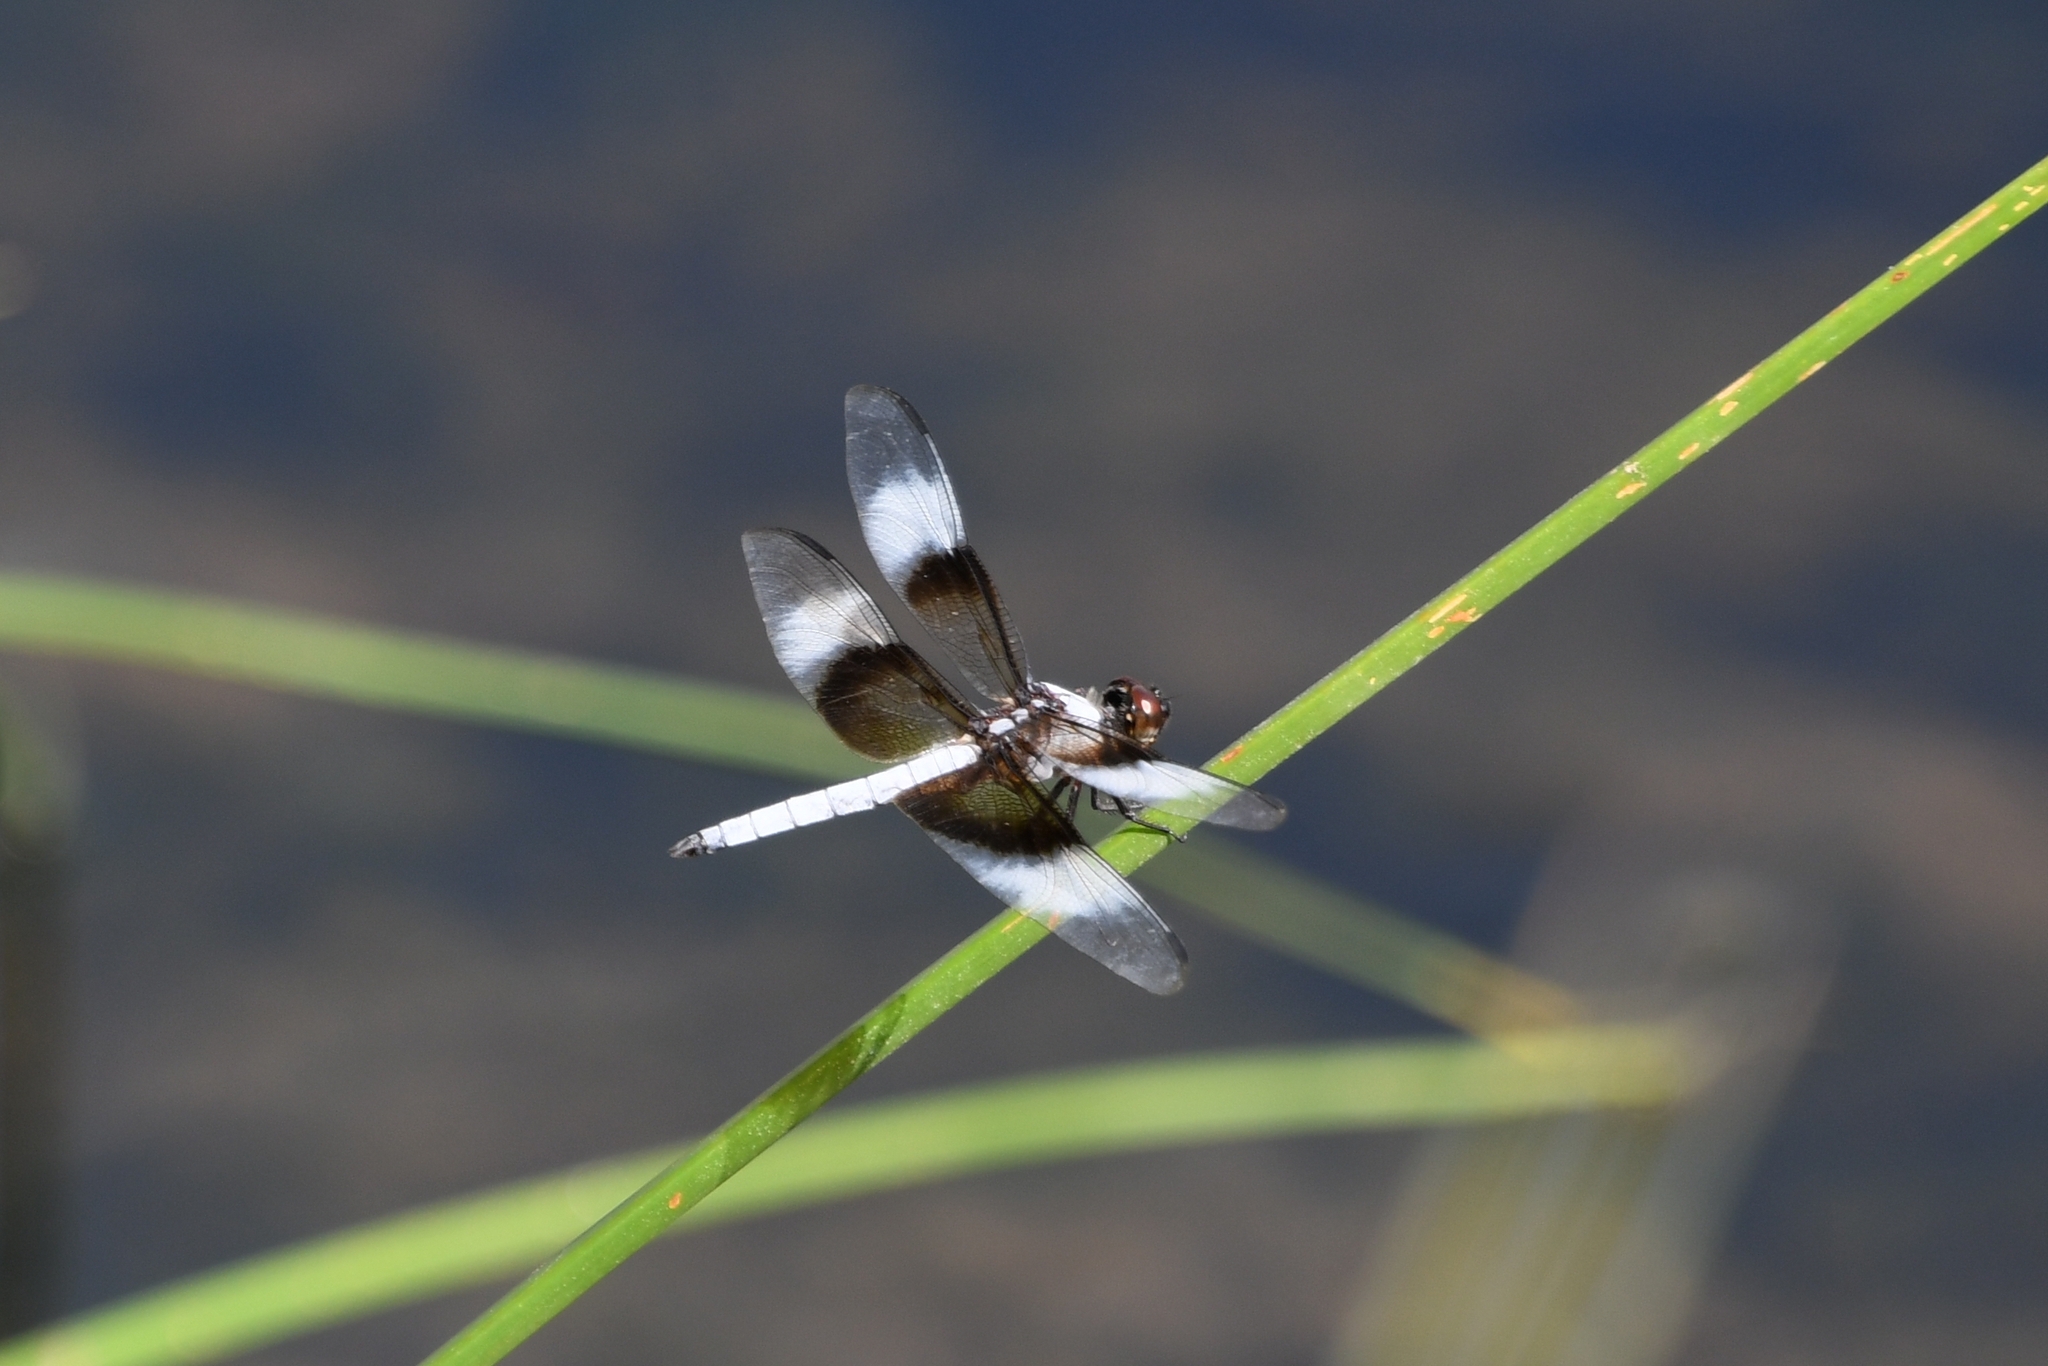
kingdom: Animalia
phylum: Arthropoda
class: Insecta
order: Odonata
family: Libellulidae
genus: Libellula
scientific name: Libellula luctuosa
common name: Widow skimmer
